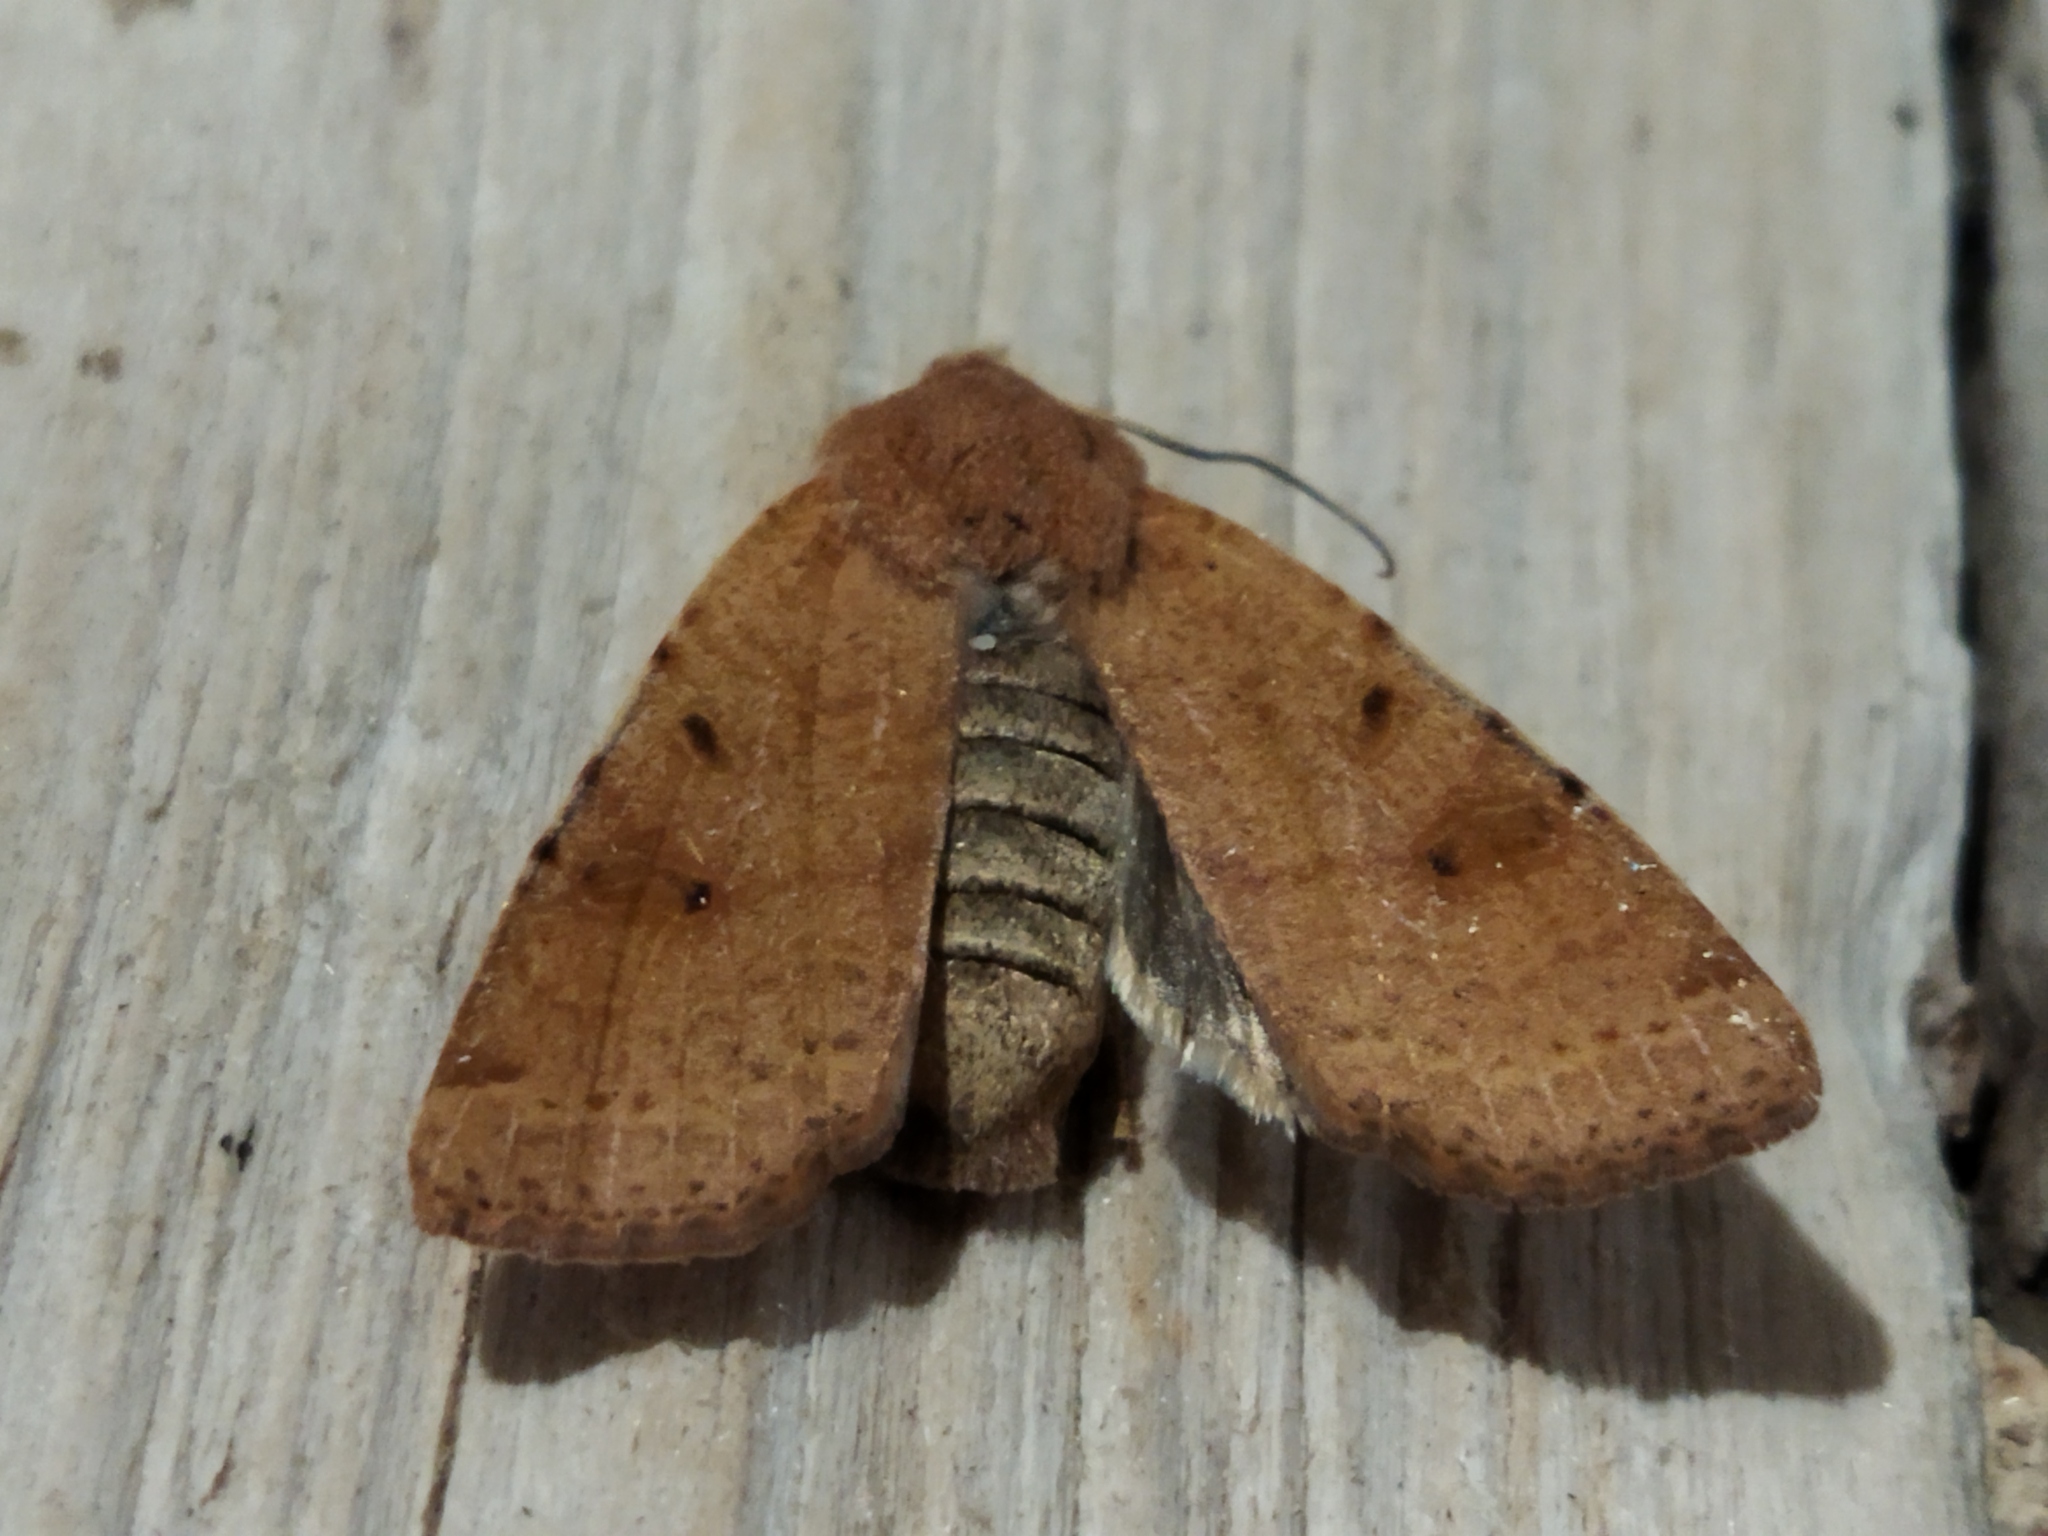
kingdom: Animalia
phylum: Arthropoda
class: Insecta
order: Lepidoptera
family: Noctuidae
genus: Agrochola
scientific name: Agrochola lychnidis
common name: Beaded chestnut
